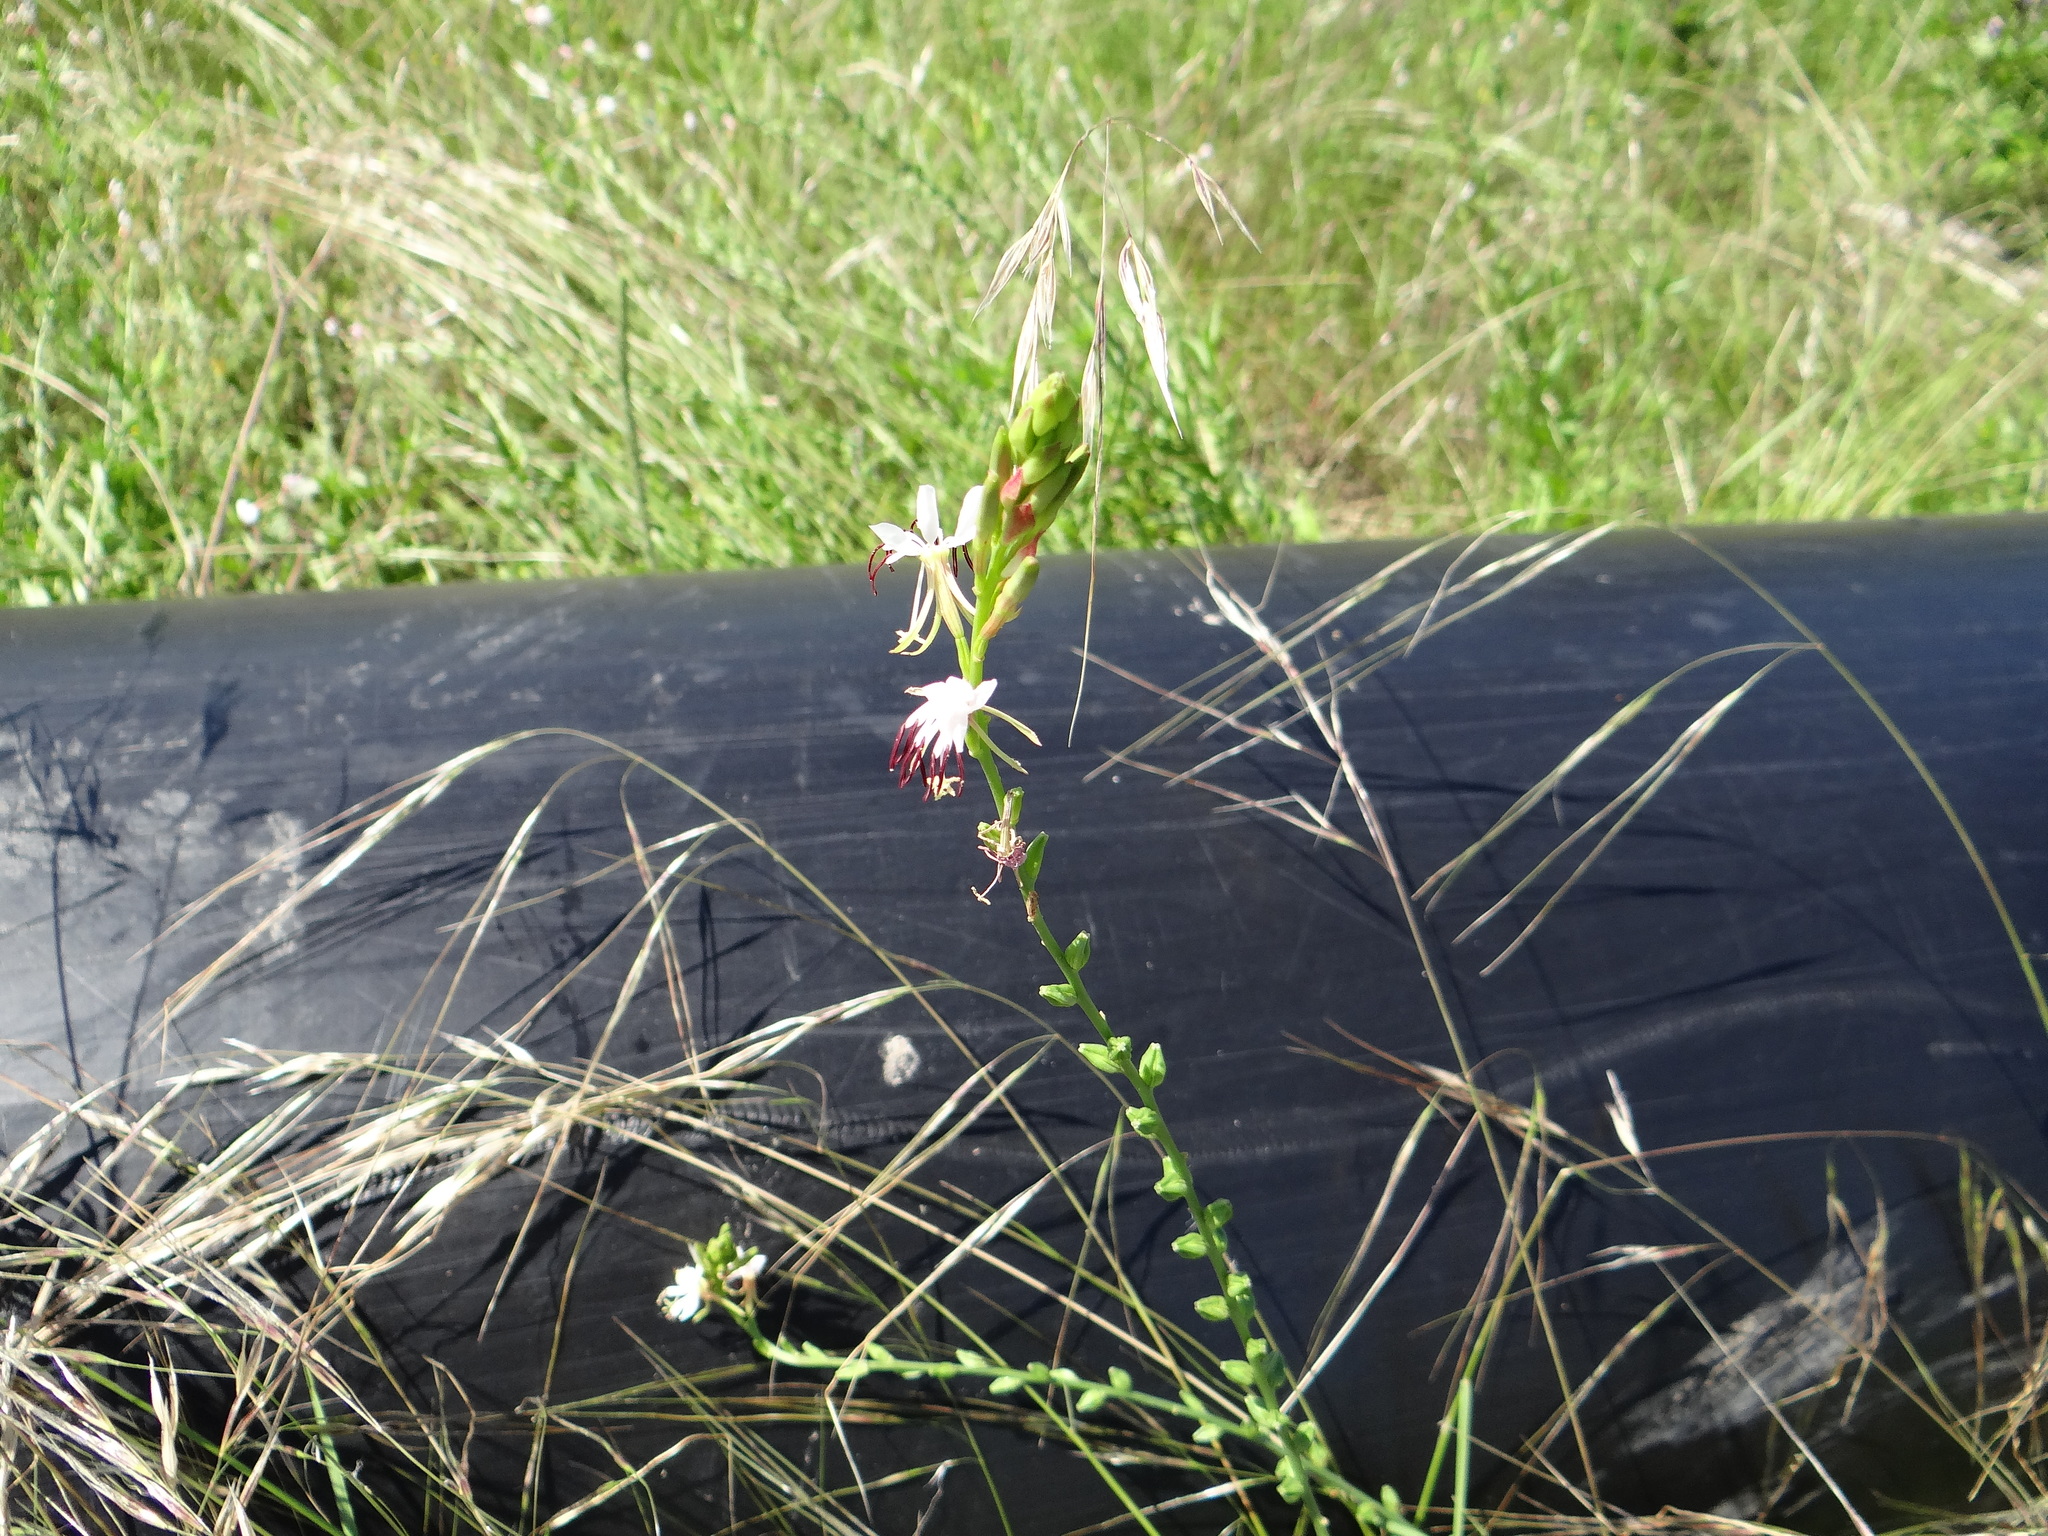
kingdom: Plantae
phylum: Tracheophyta
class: Magnoliopsida
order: Myrtales
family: Onagraceae
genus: Oenothera
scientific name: Oenothera suffulta
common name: Kisses
